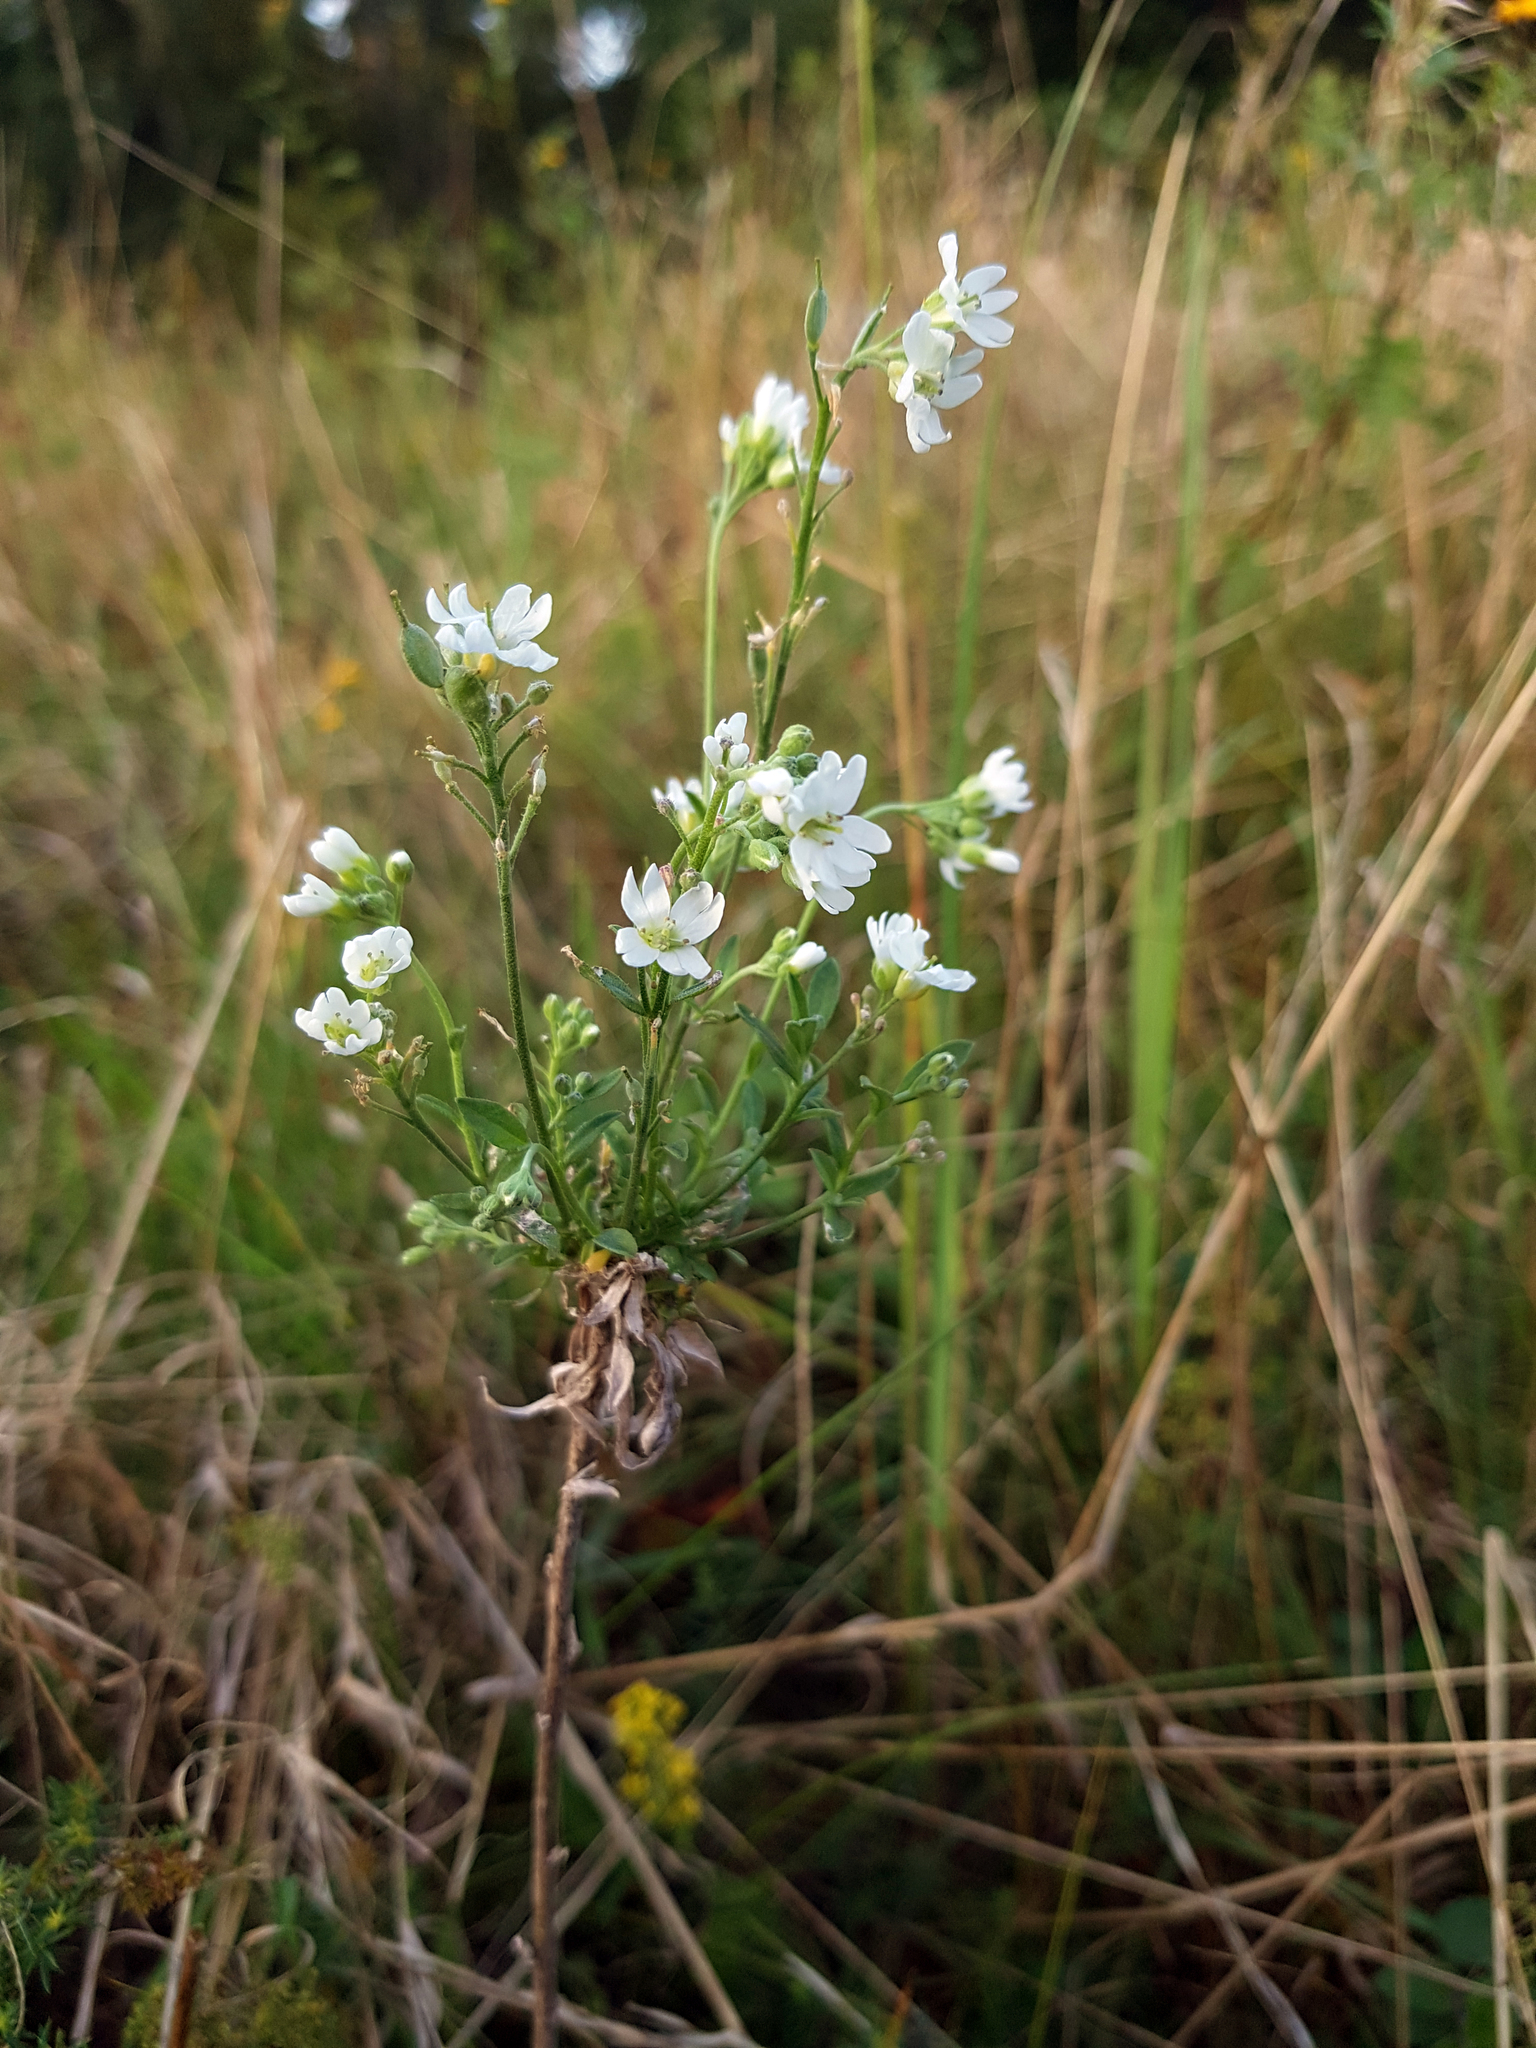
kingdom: Plantae
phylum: Tracheophyta
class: Magnoliopsida
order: Brassicales
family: Brassicaceae
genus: Berteroa
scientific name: Berteroa incana
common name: Hoary alison
